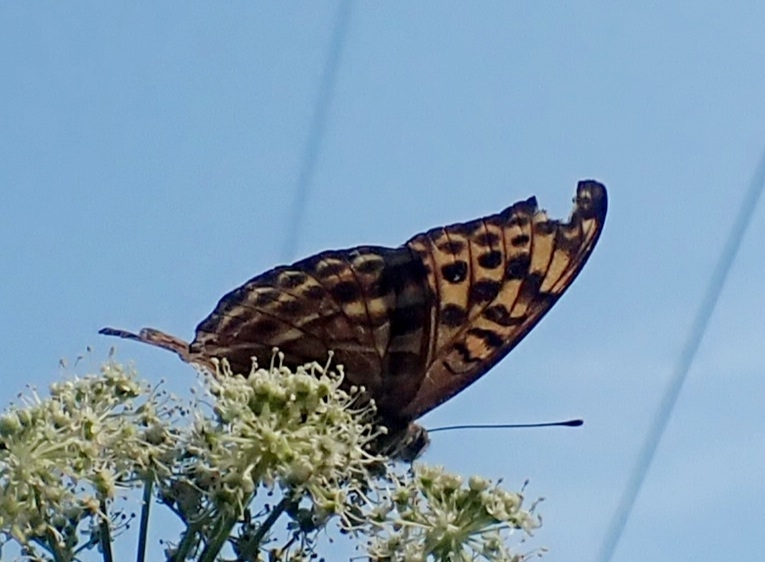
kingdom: Animalia
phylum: Arthropoda
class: Insecta
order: Lepidoptera
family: Nymphalidae
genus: Argynnis
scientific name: Argynnis paphia
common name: Silver-washed fritillary
